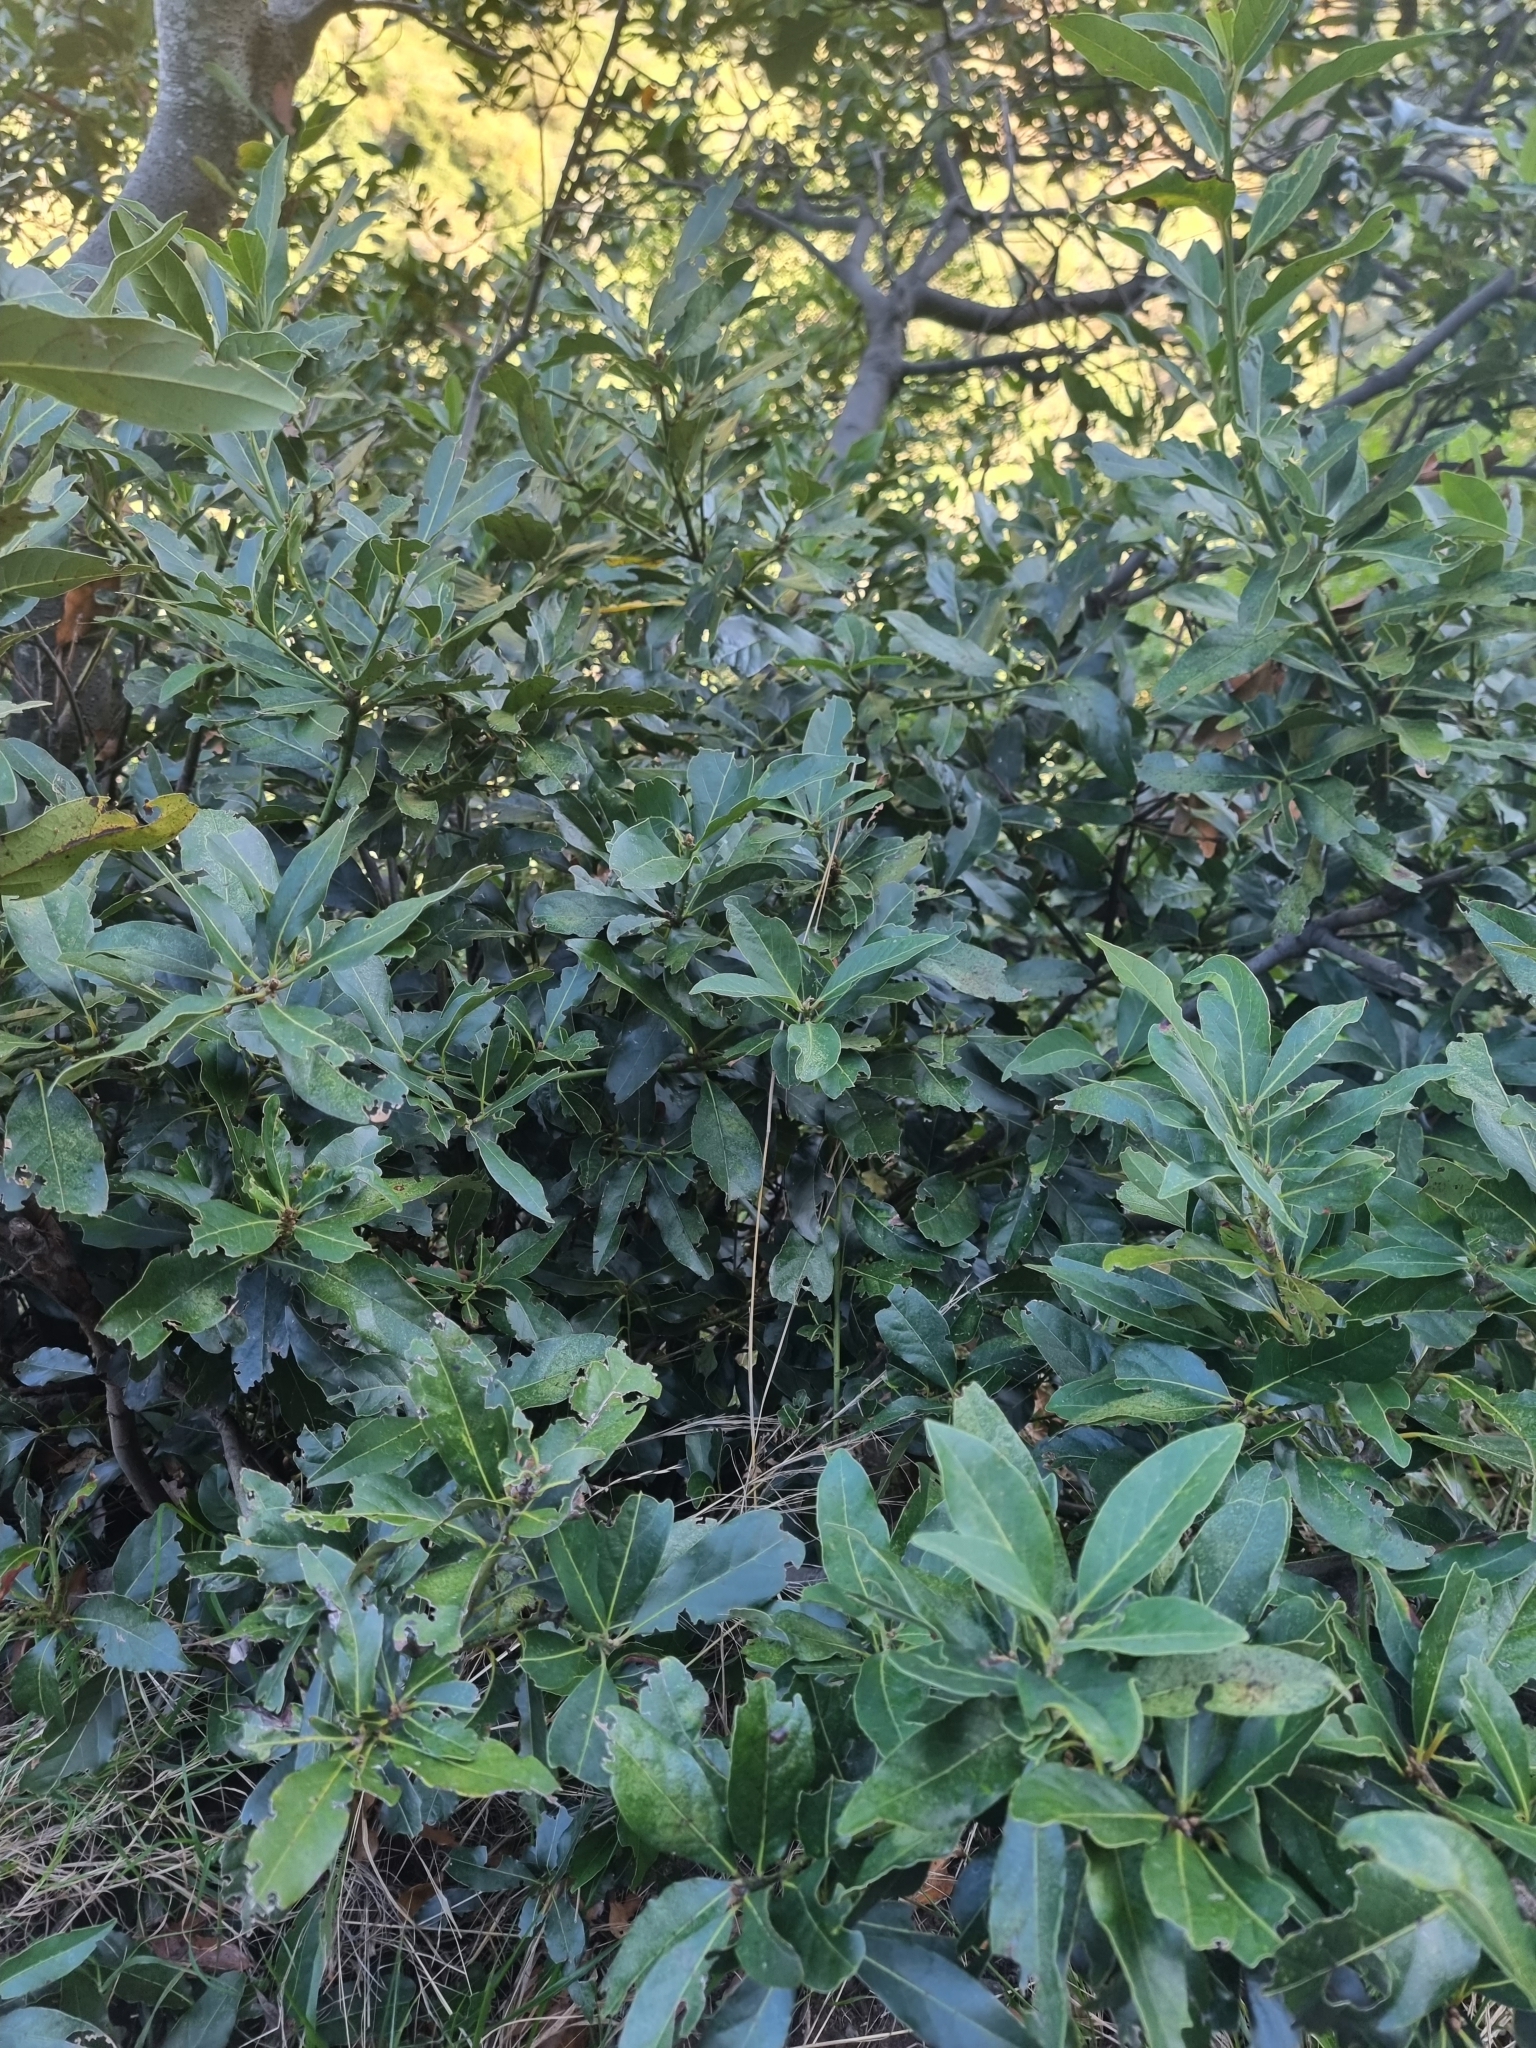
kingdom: Plantae
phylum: Tracheophyta
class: Magnoliopsida
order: Laurales
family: Lauraceae
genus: Laurus
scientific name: Laurus novocanariensis
